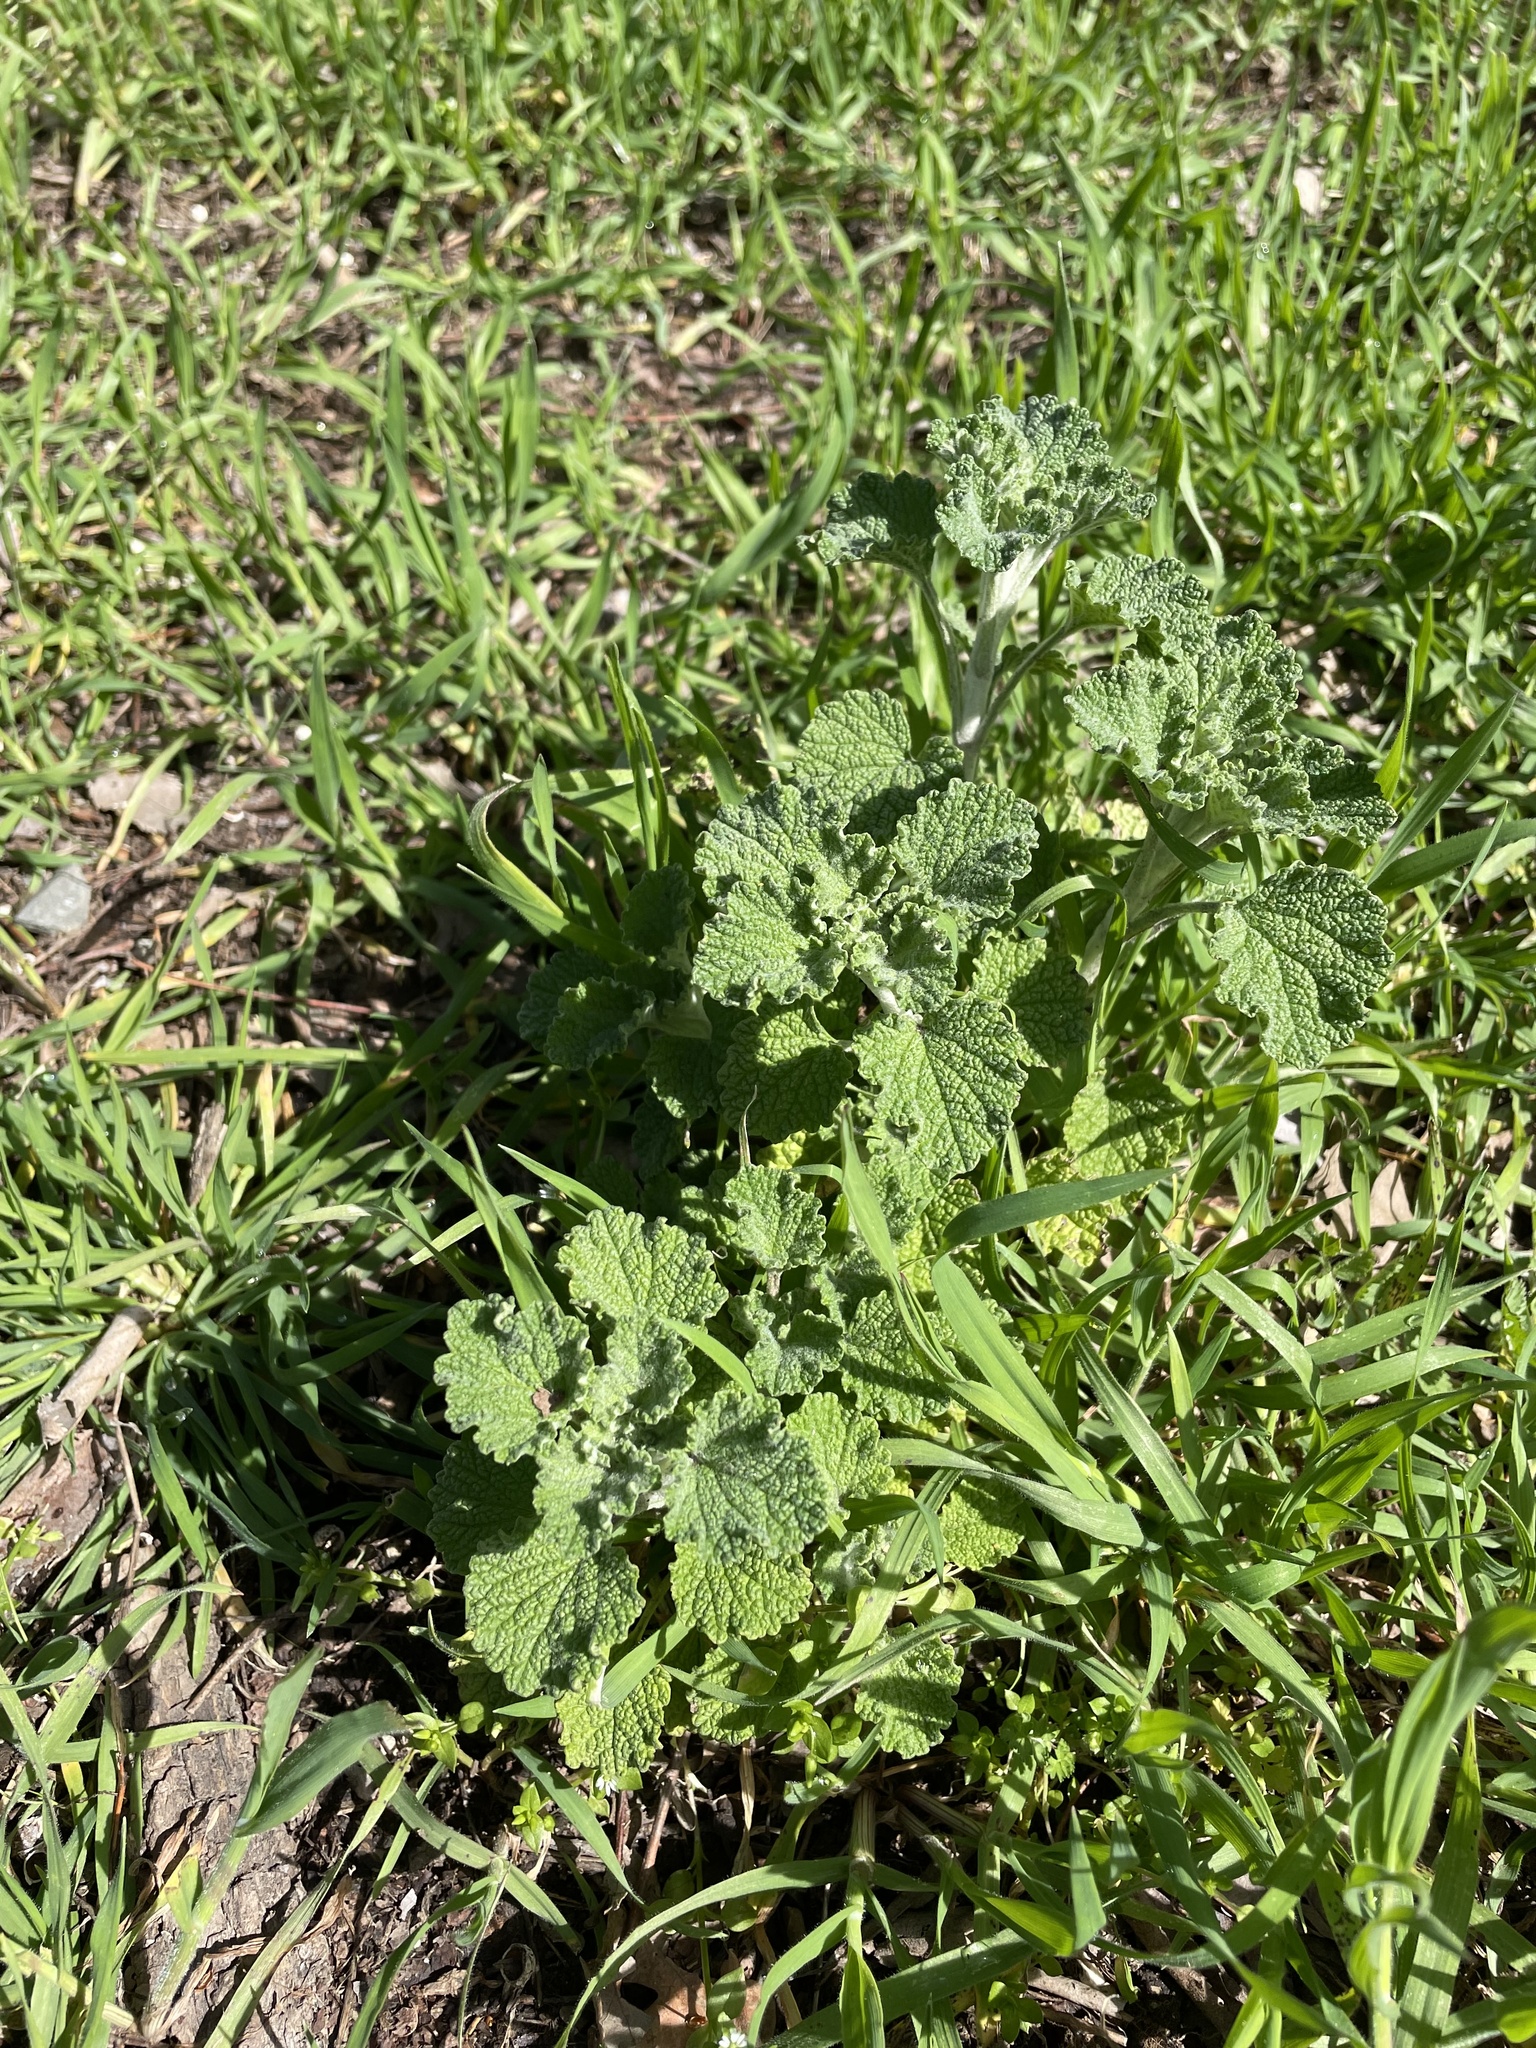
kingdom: Plantae
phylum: Tracheophyta
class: Magnoliopsida
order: Lamiales
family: Lamiaceae
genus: Marrubium
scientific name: Marrubium vulgare
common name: Horehound
